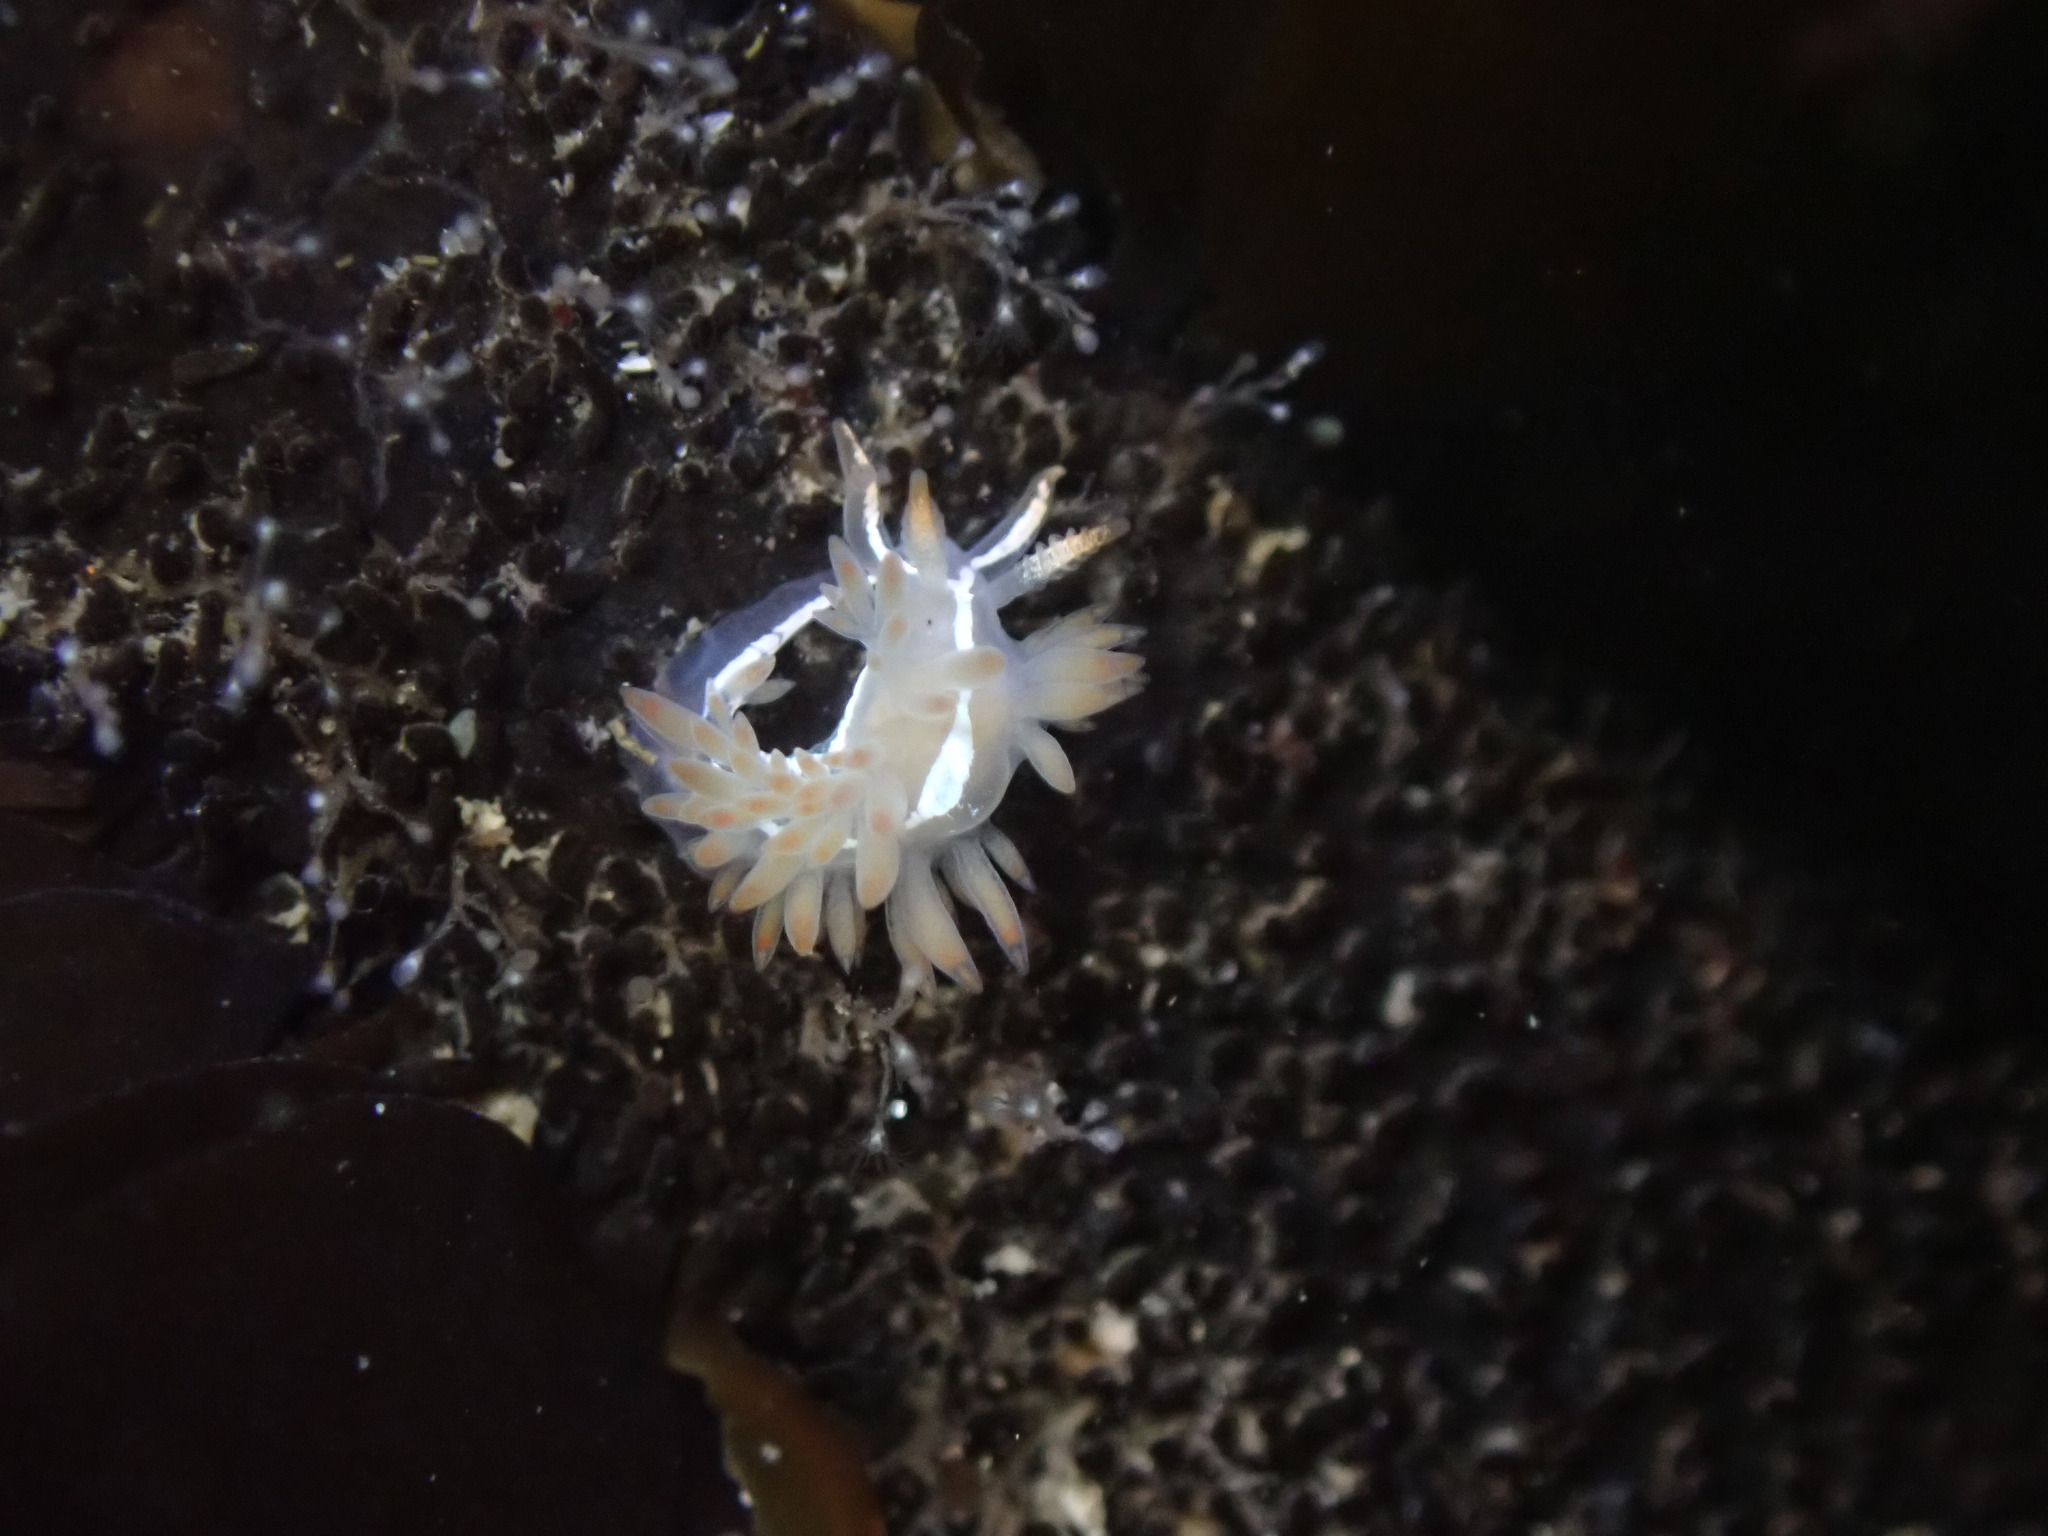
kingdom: Animalia
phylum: Mollusca
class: Gastropoda
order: Nudibranchia
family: Coryphellidae
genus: Coryphella
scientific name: Coryphella trilineata
